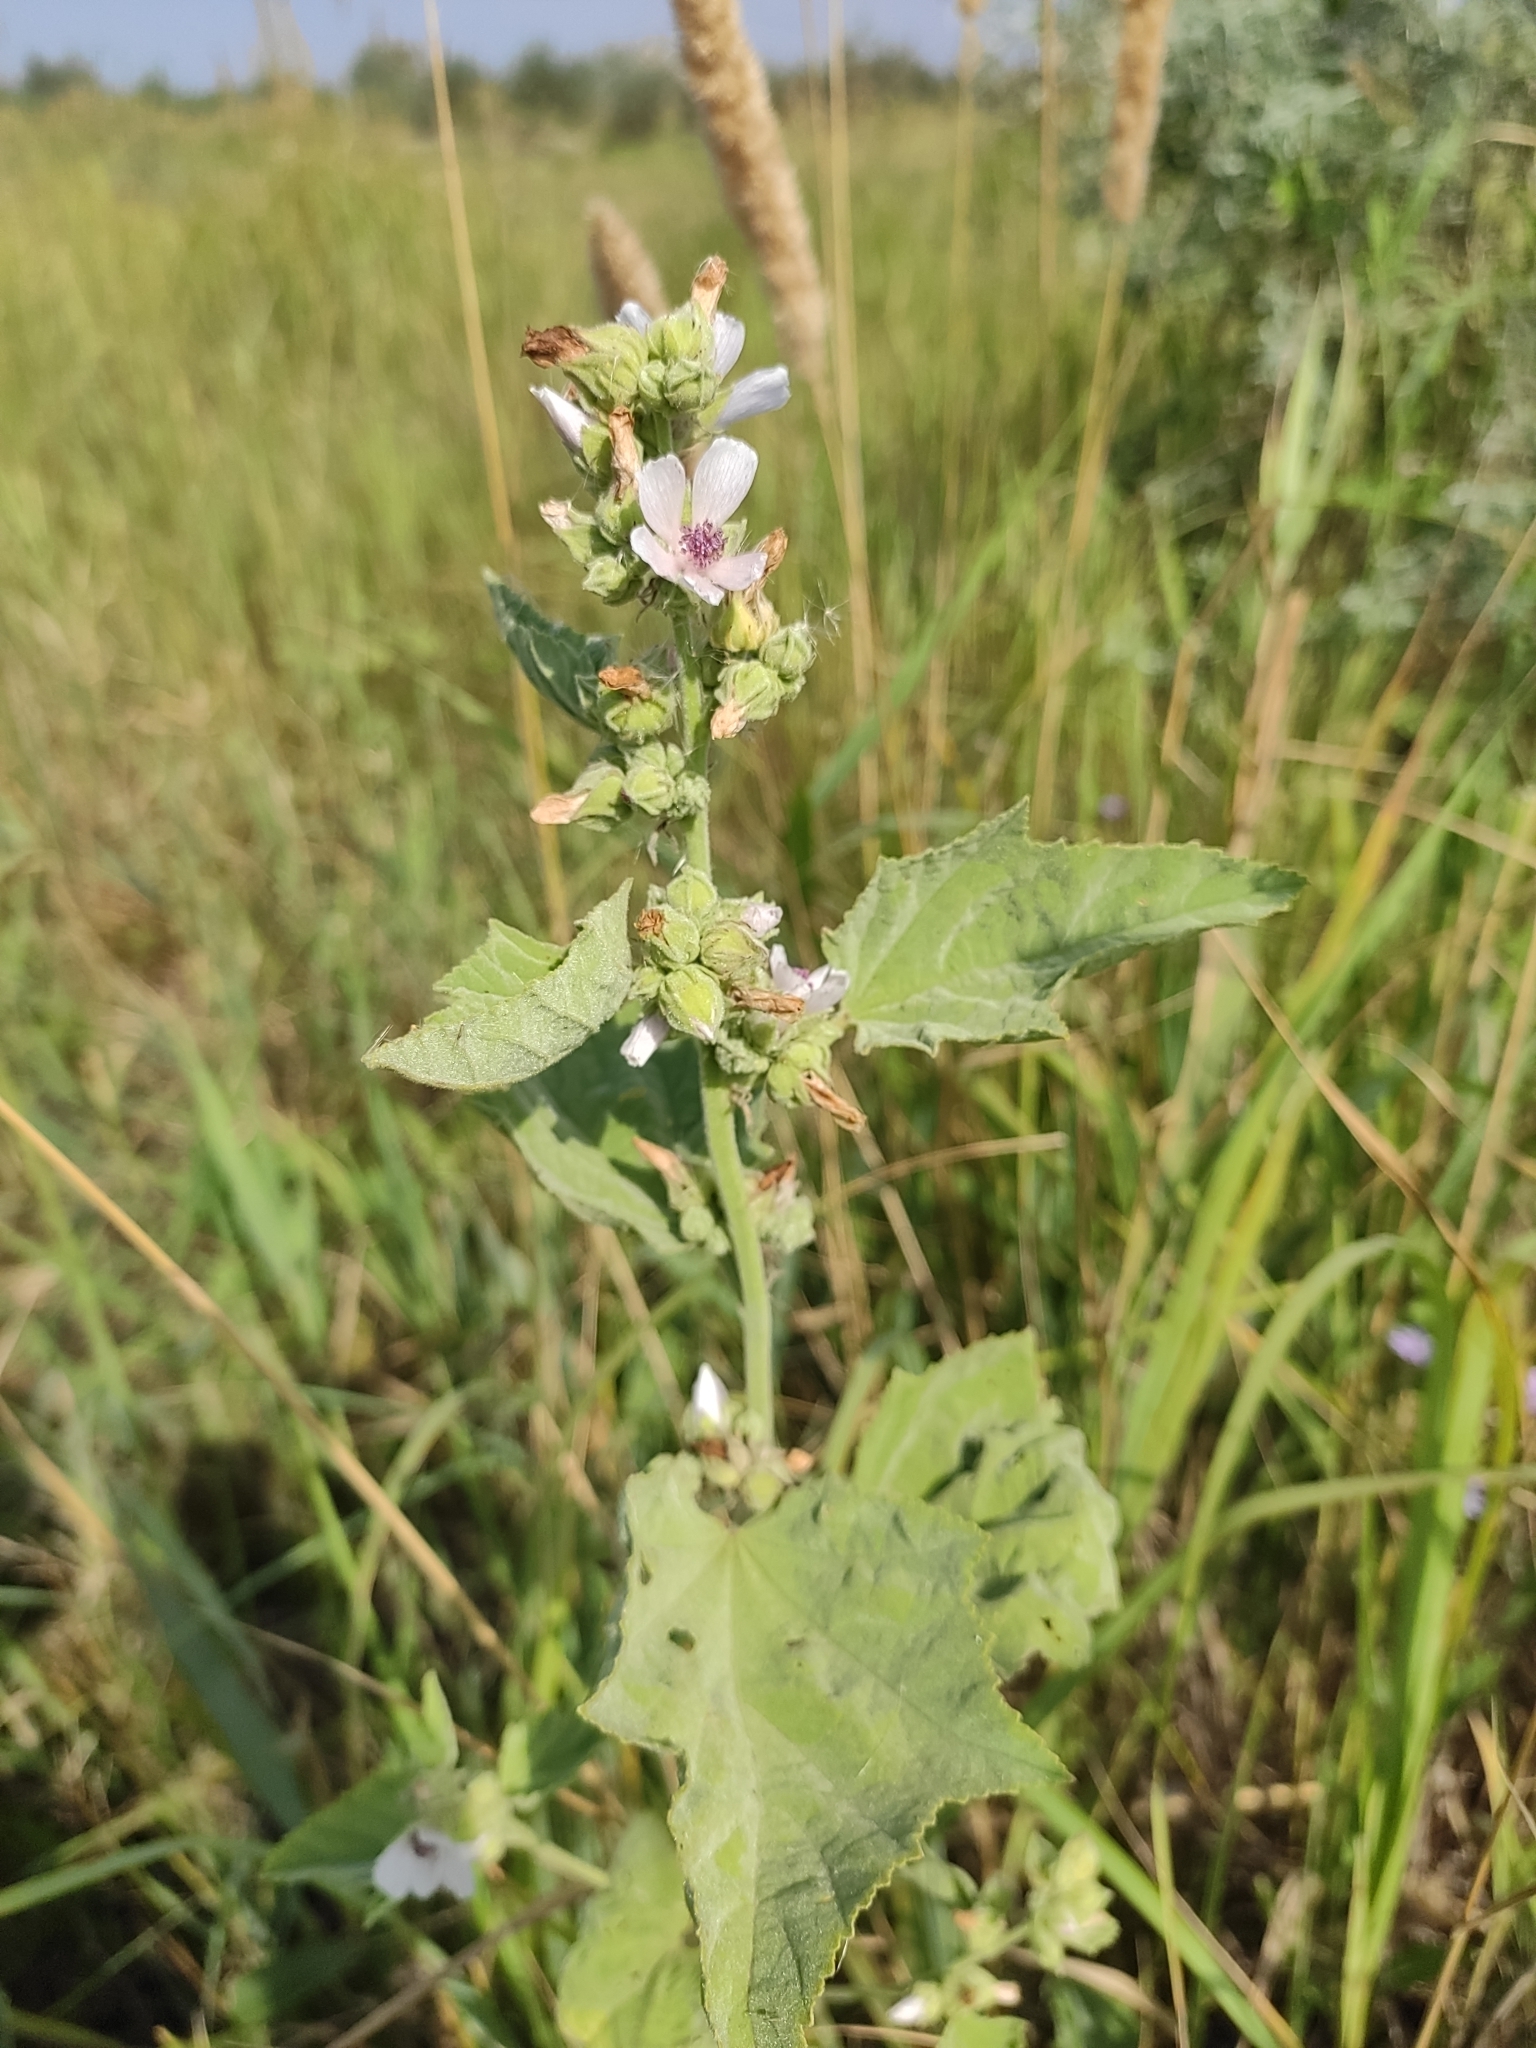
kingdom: Plantae
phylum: Tracheophyta
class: Magnoliopsida
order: Malvales
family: Malvaceae
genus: Althaea
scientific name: Althaea officinalis
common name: Marsh-mallow
